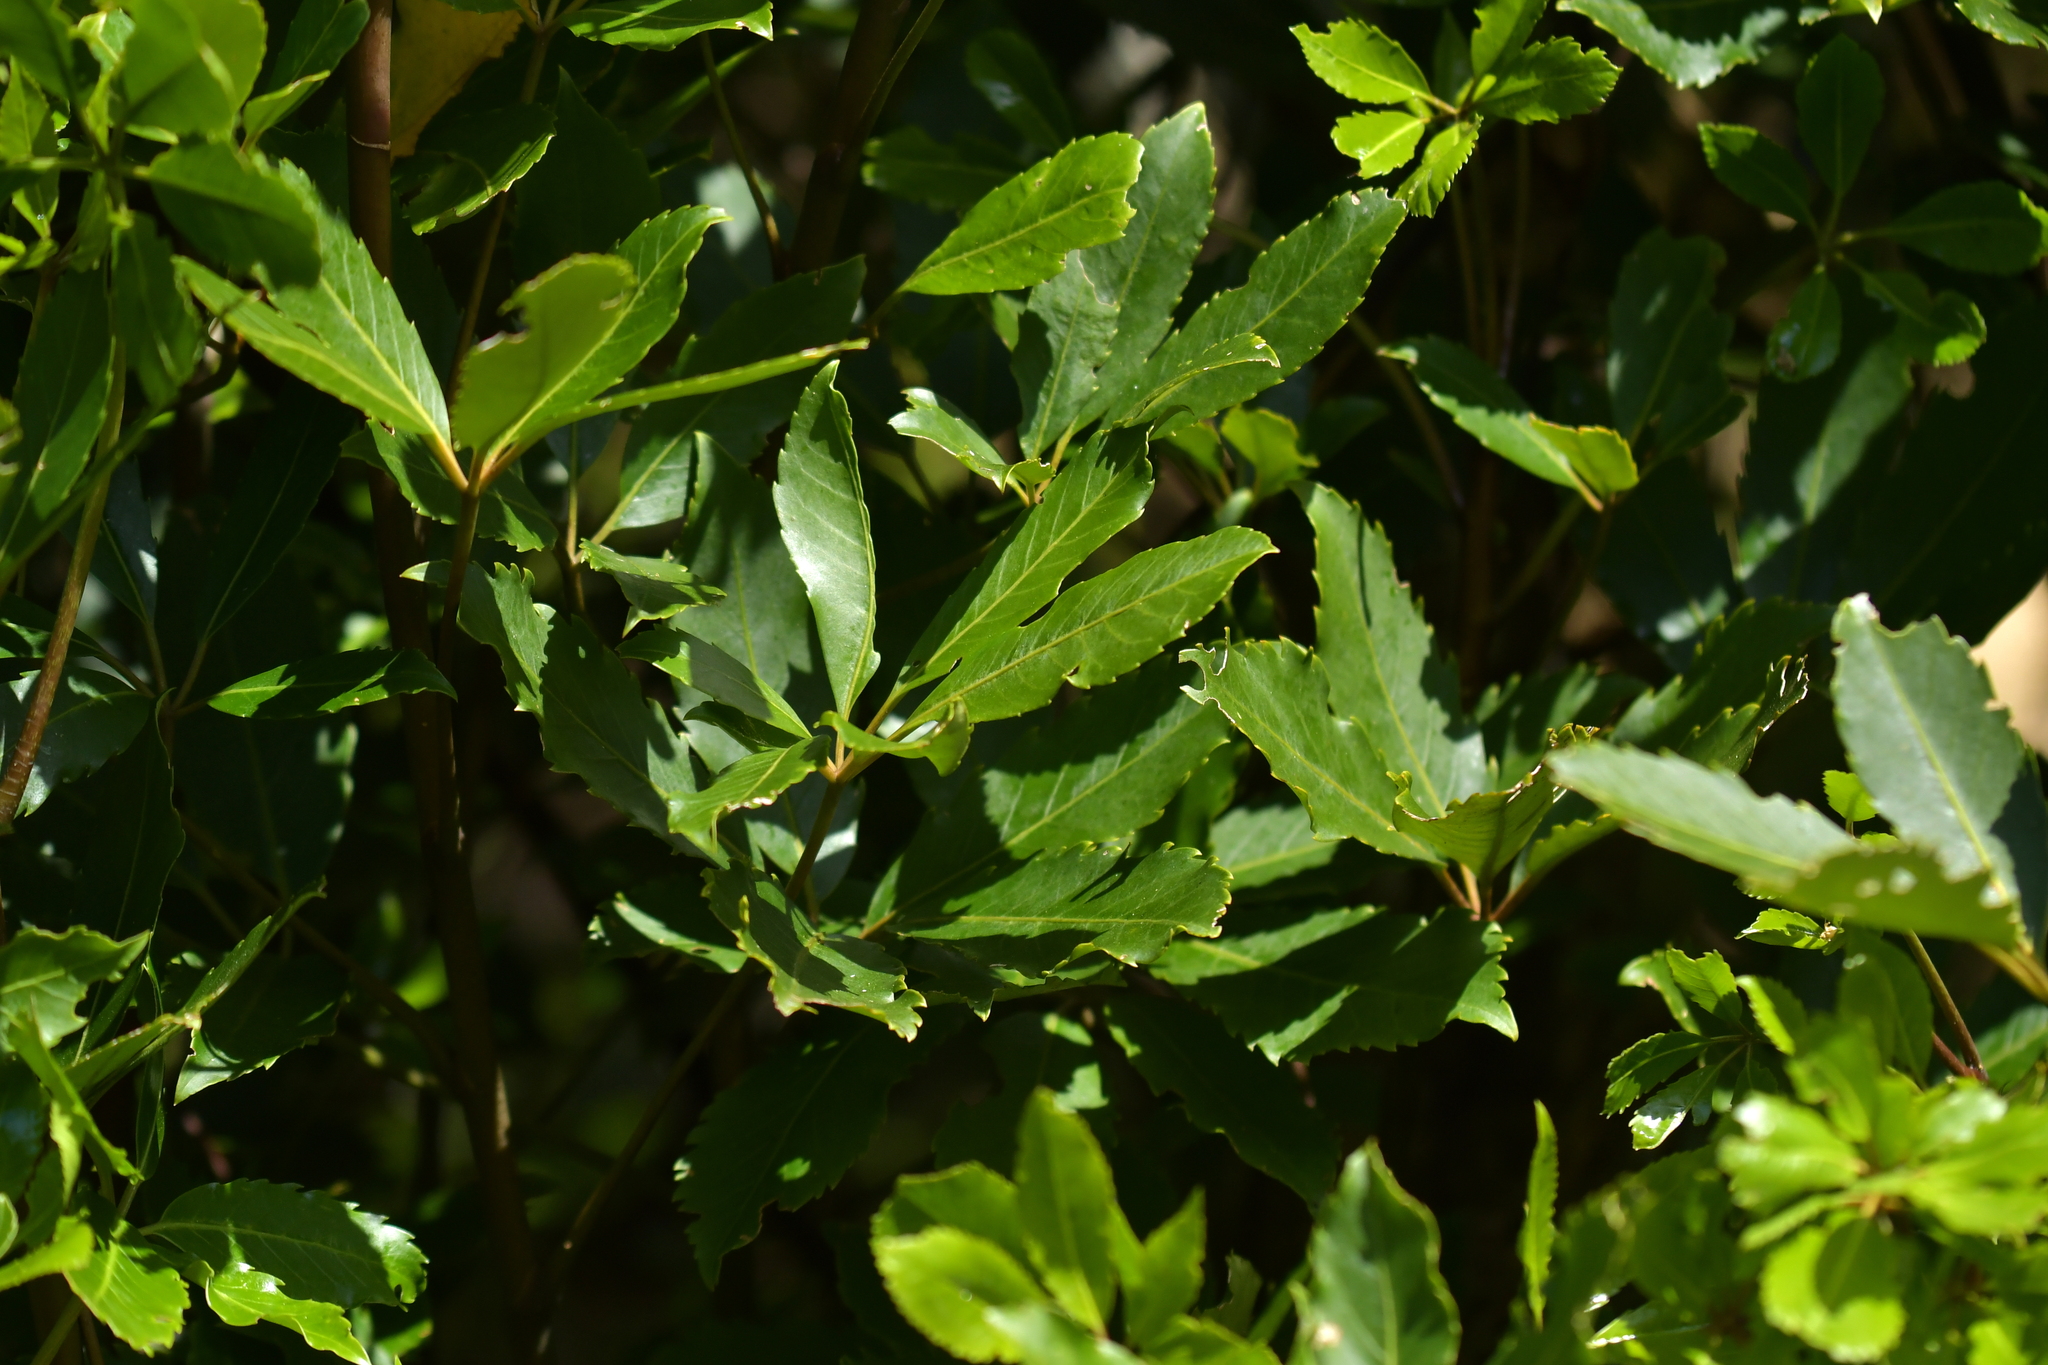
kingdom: Plantae
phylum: Tracheophyta
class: Magnoliopsida
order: Apiales
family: Araliaceae
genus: Neopanax
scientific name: Neopanax arboreus
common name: Five-fingers
